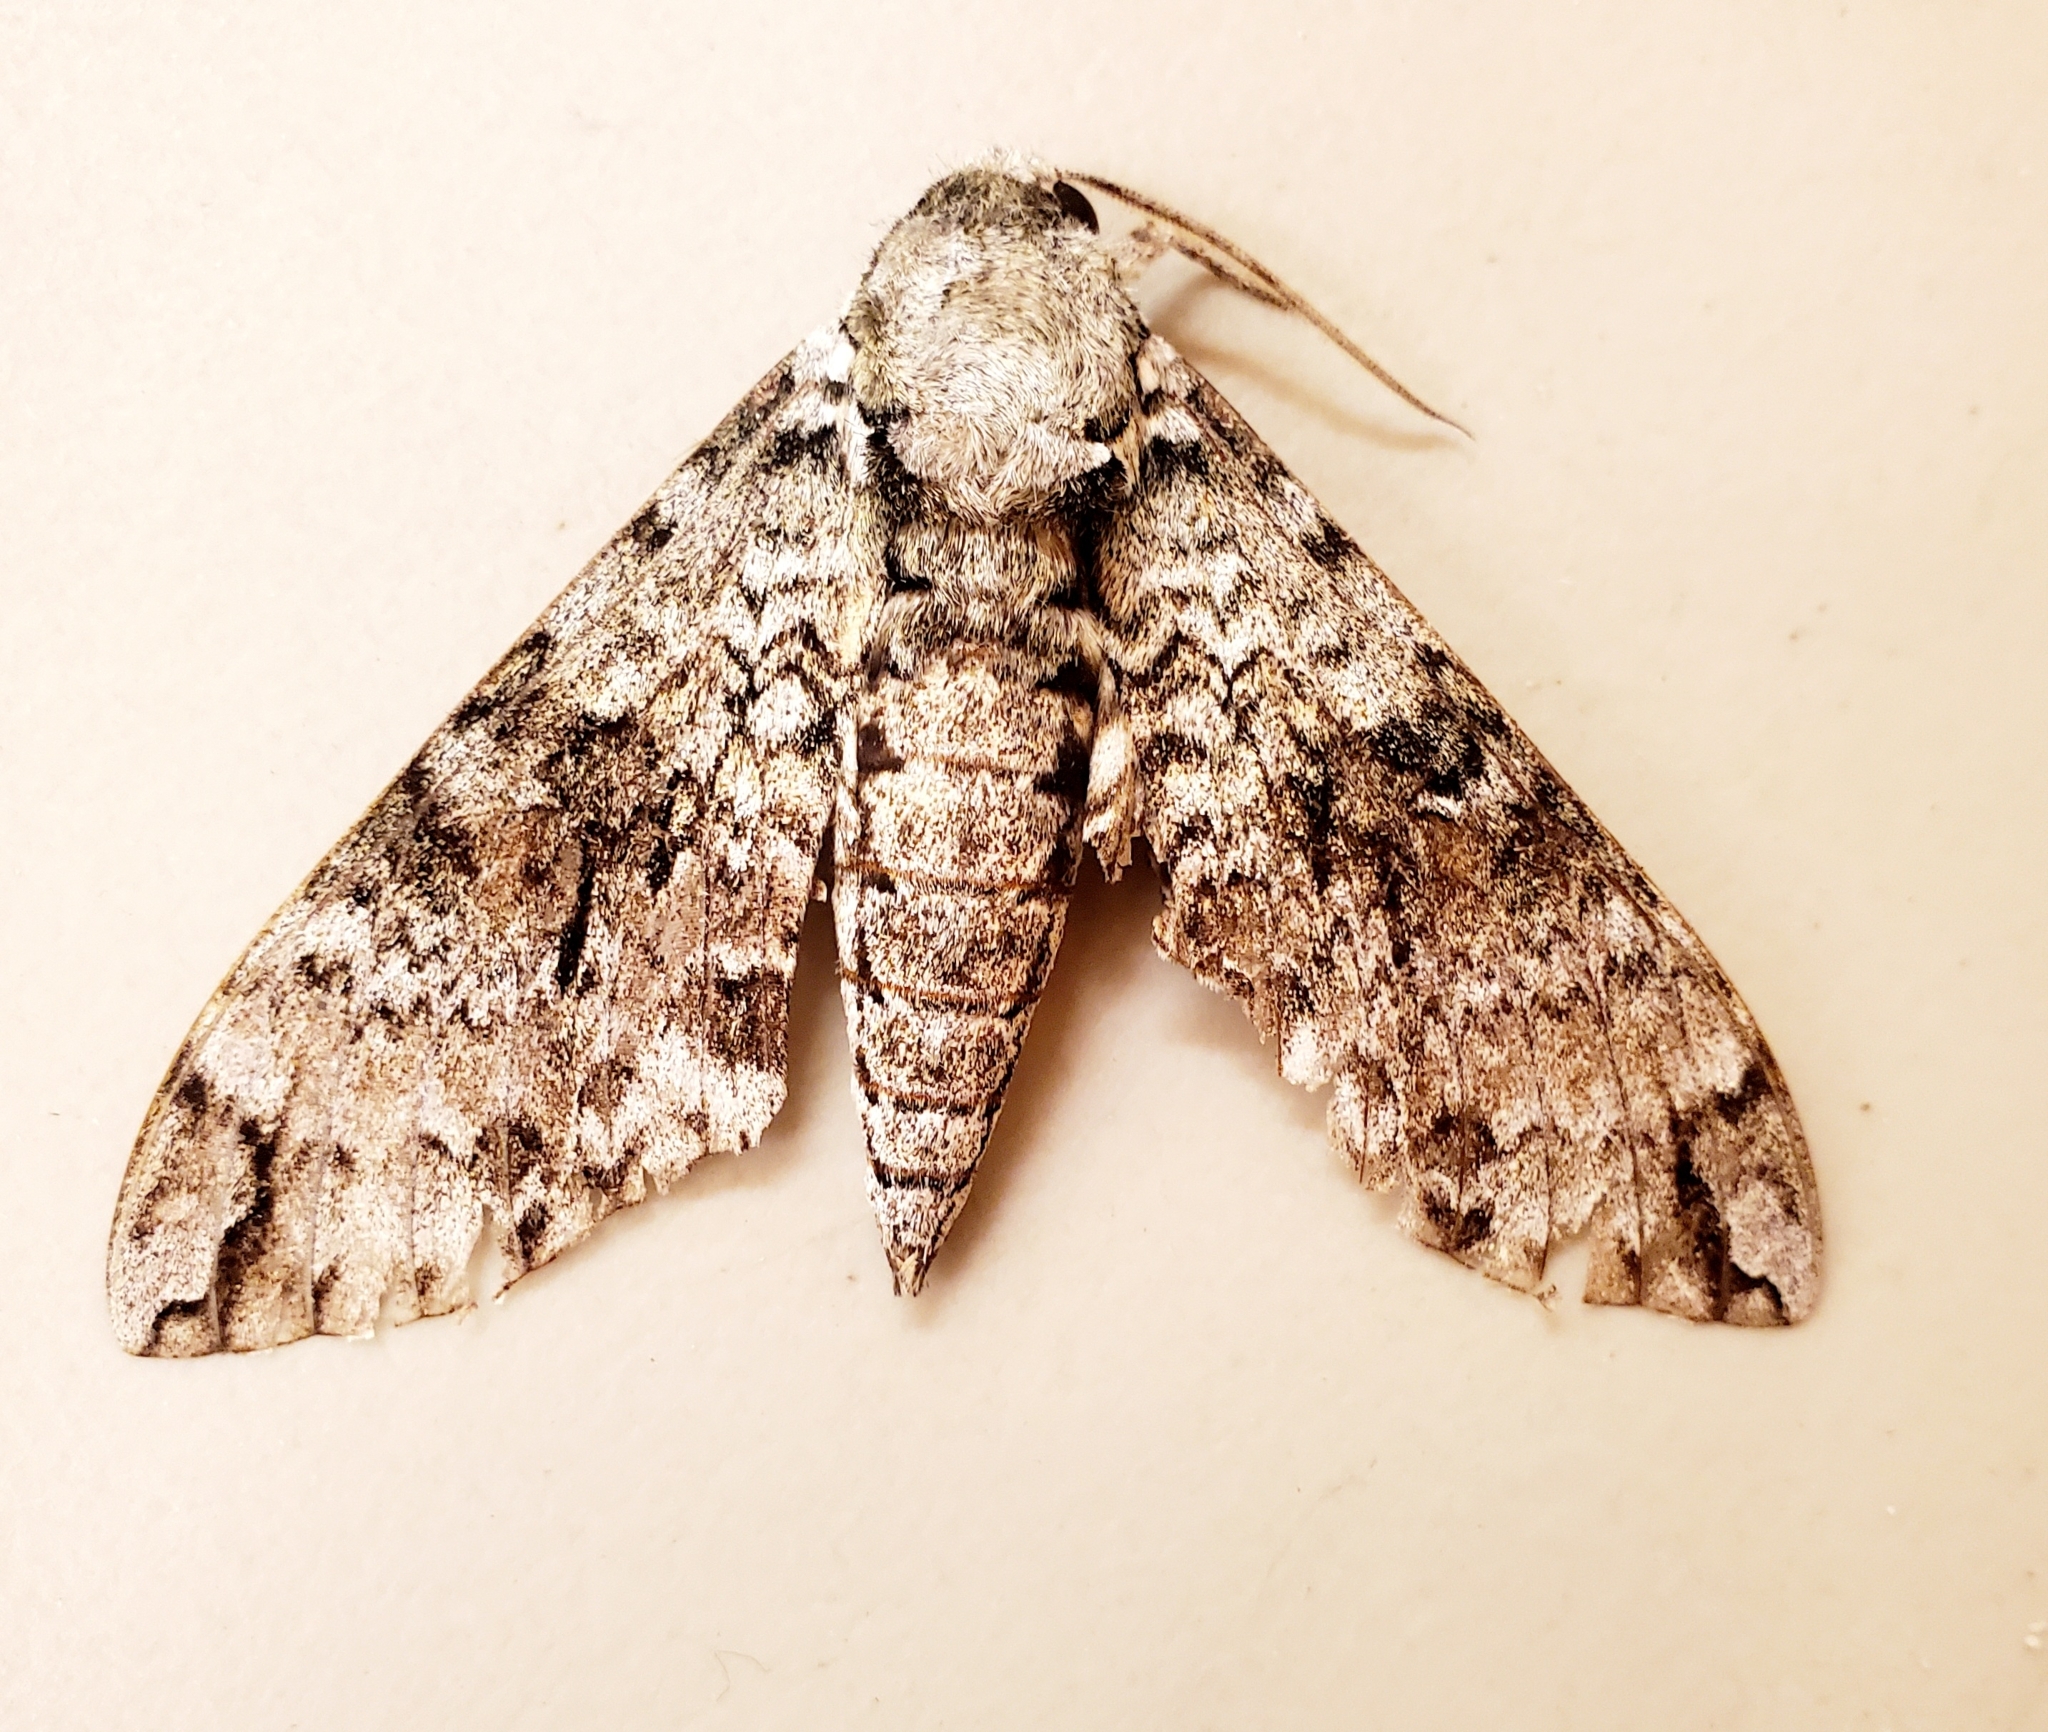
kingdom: Animalia
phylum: Arthropoda
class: Insecta
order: Lepidoptera
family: Sphingidae
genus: Manduca
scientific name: Manduca florestan
